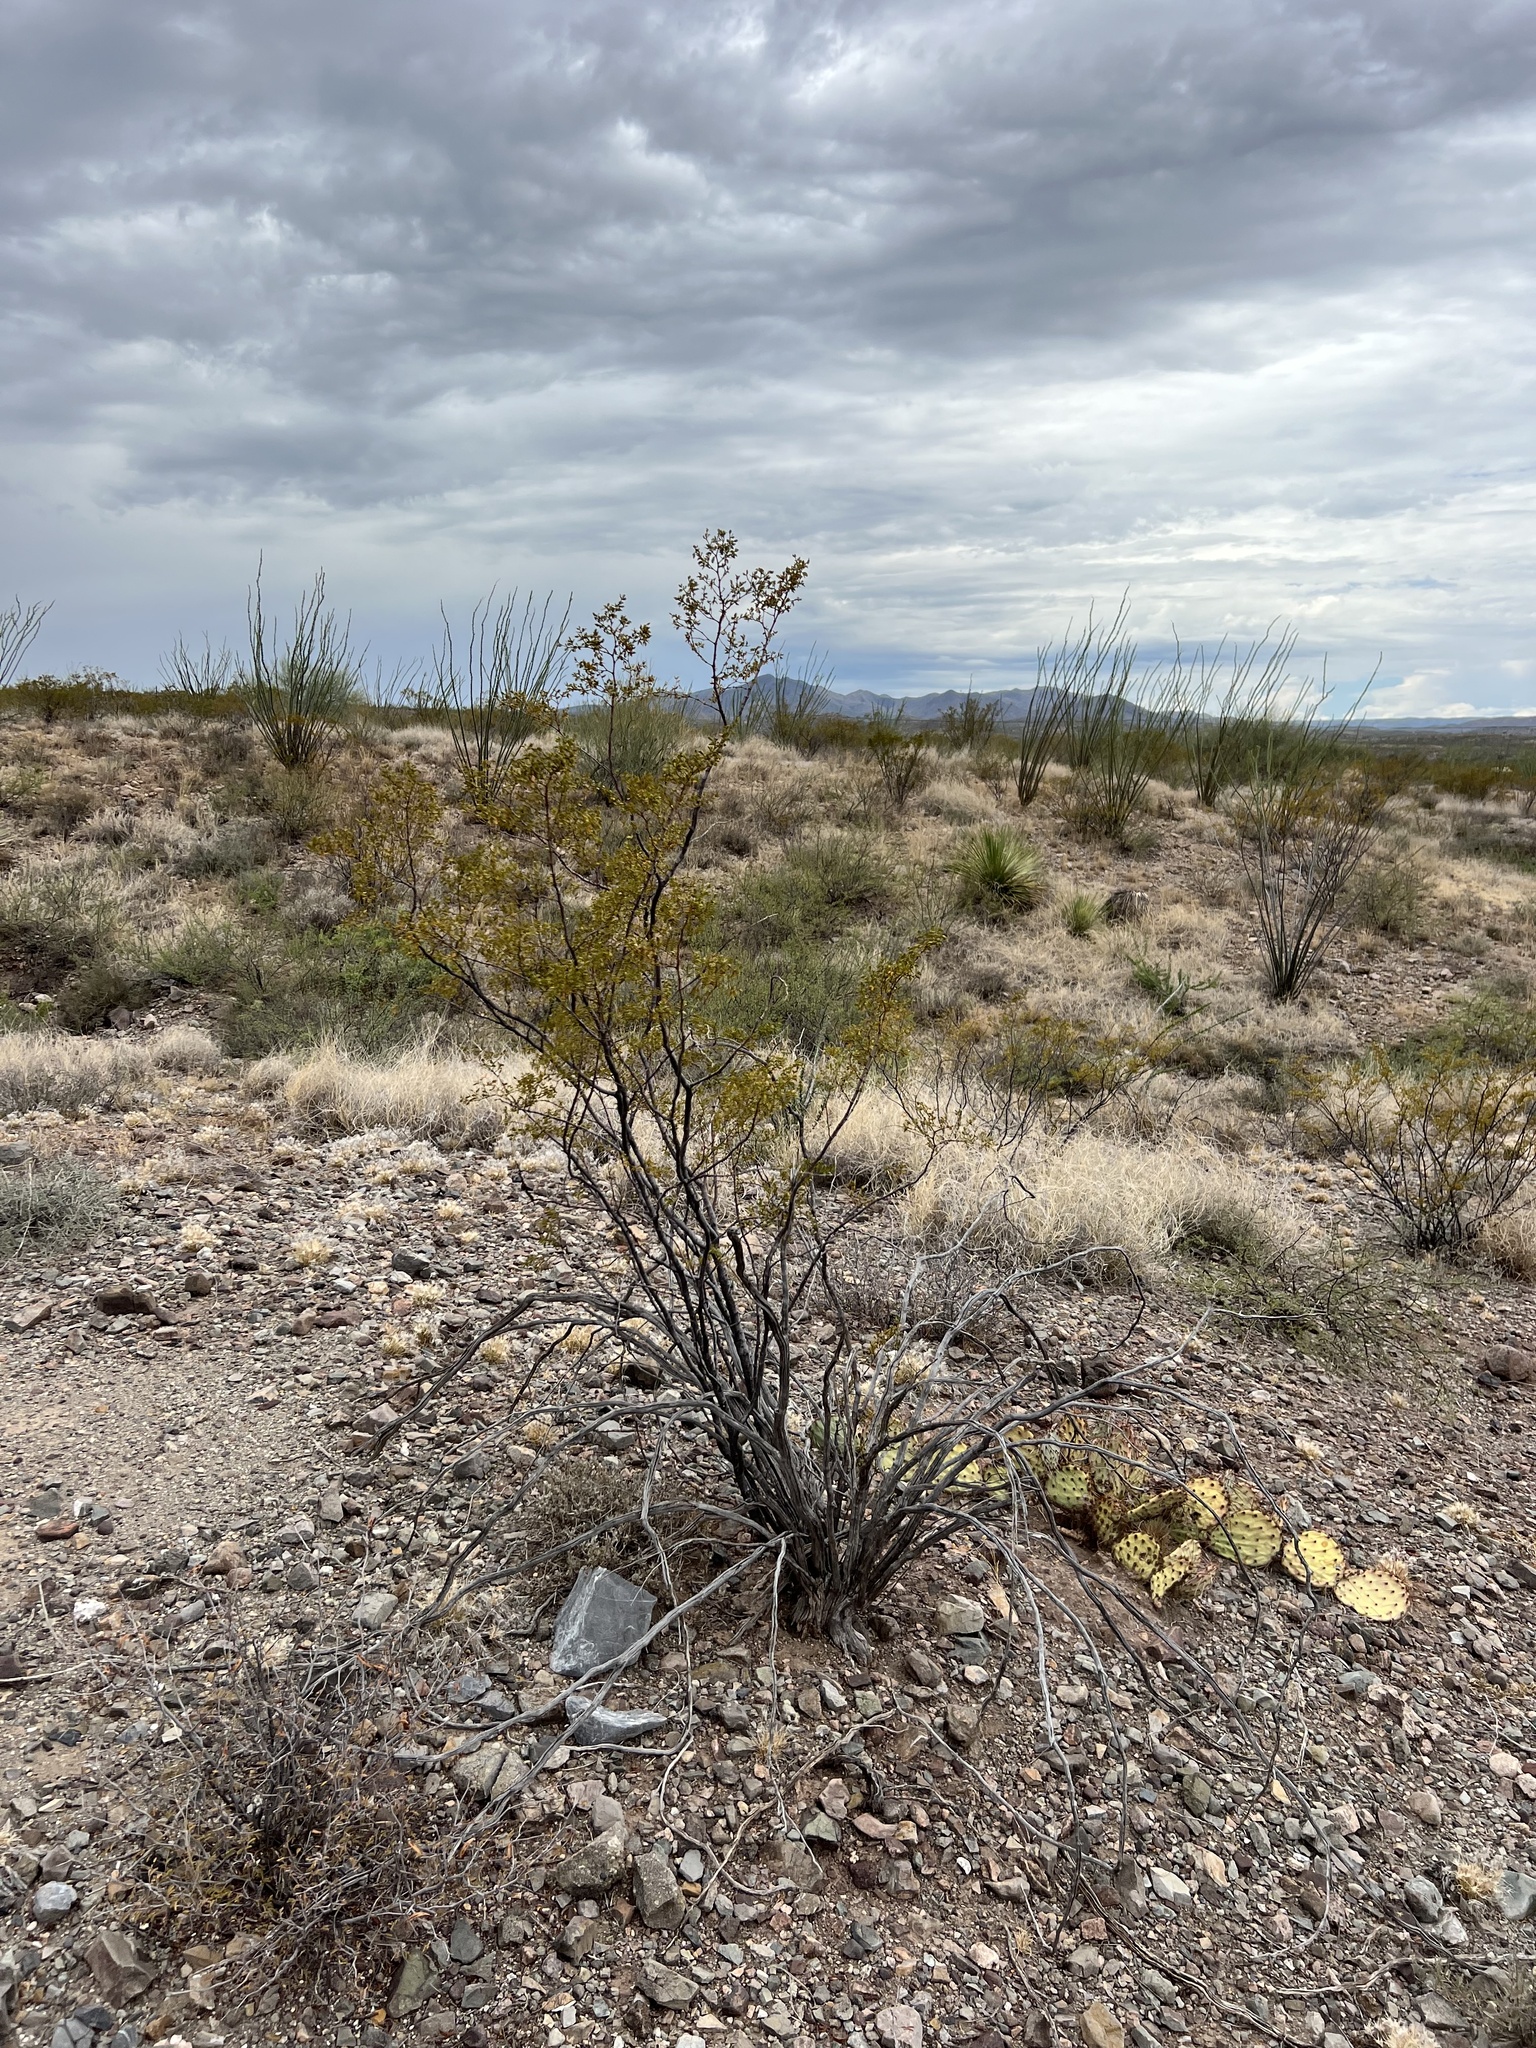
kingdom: Plantae
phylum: Tracheophyta
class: Magnoliopsida
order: Zygophyllales
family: Zygophyllaceae
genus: Larrea
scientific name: Larrea tridentata
